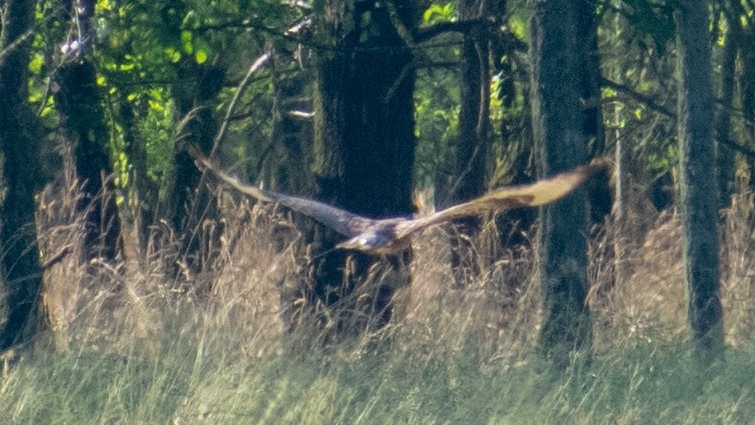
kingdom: Animalia
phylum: Chordata
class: Aves
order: Accipitriformes
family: Accipitridae
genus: Buteo
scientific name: Buteo buteo
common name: Common buzzard
